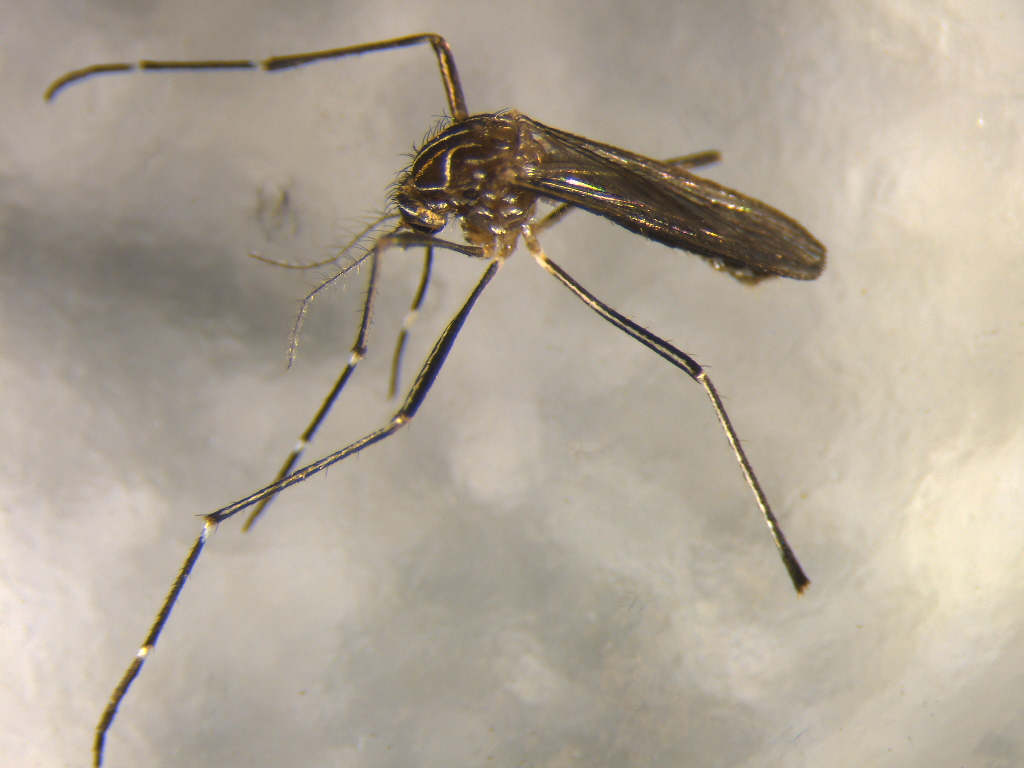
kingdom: Animalia
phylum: Arthropoda
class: Insecta
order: Diptera
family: Culicidae
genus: Aedes
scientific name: Aedes notoscriptus
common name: Australian backyard mosquito
